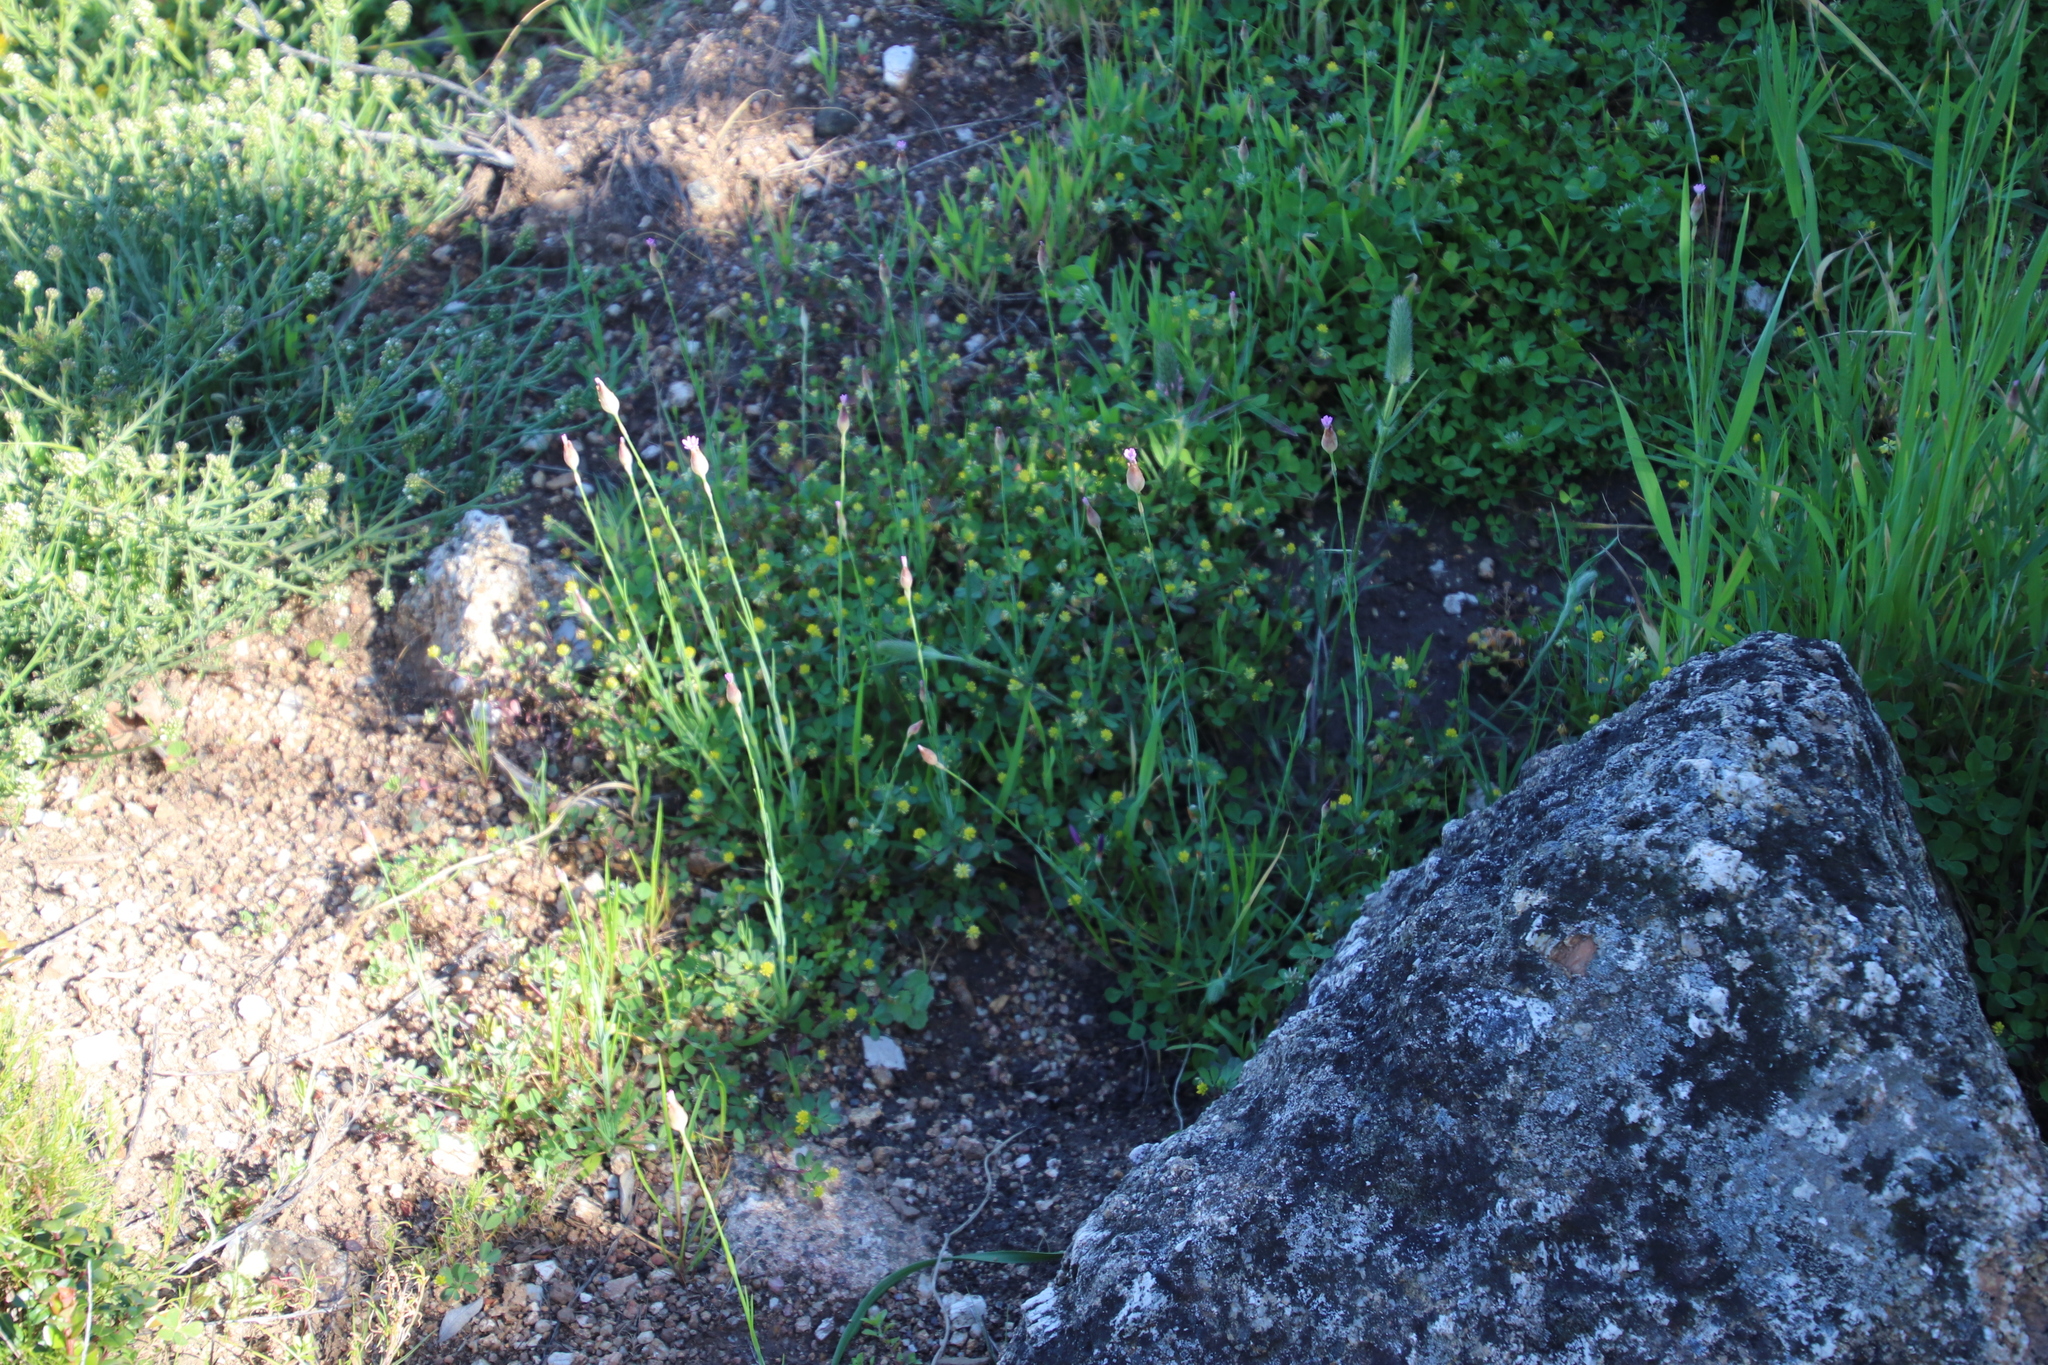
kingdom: Plantae
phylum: Tracheophyta
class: Magnoliopsida
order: Caryophyllales
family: Caryophyllaceae
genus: Petrorhagia
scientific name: Petrorhagia prolifera
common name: Proliferous pink
